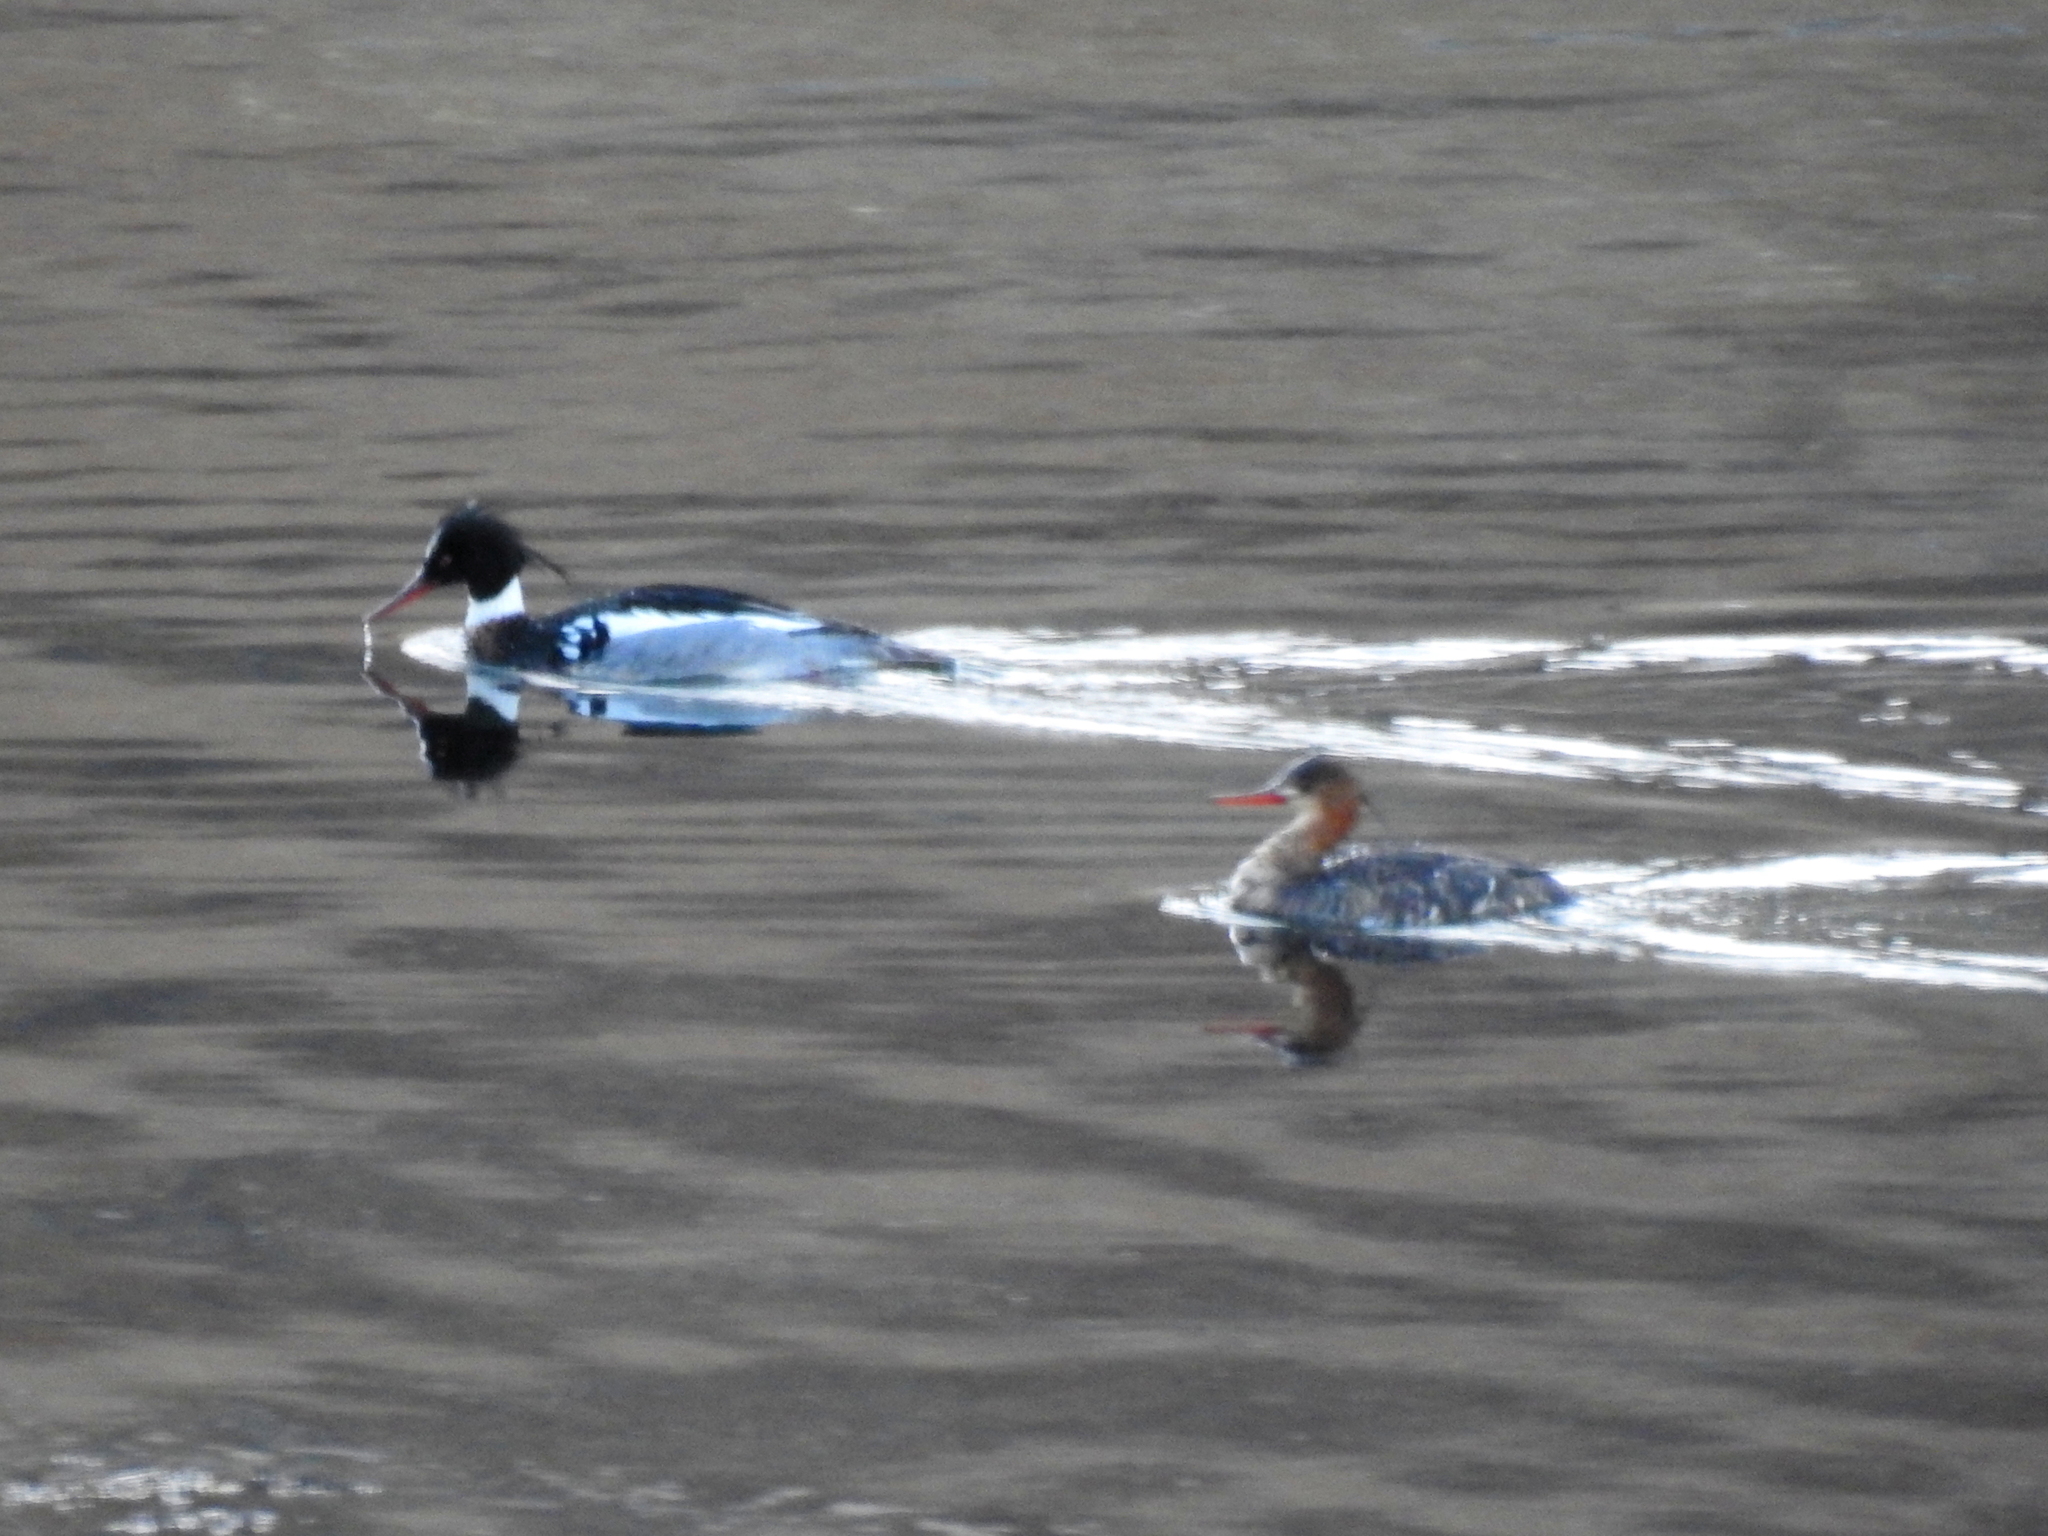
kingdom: Animalia
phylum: Chordata
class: Aves
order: Anseriformes
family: Anatidae
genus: Mergus
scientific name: Mergus serrator
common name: Red-breasted merganser
